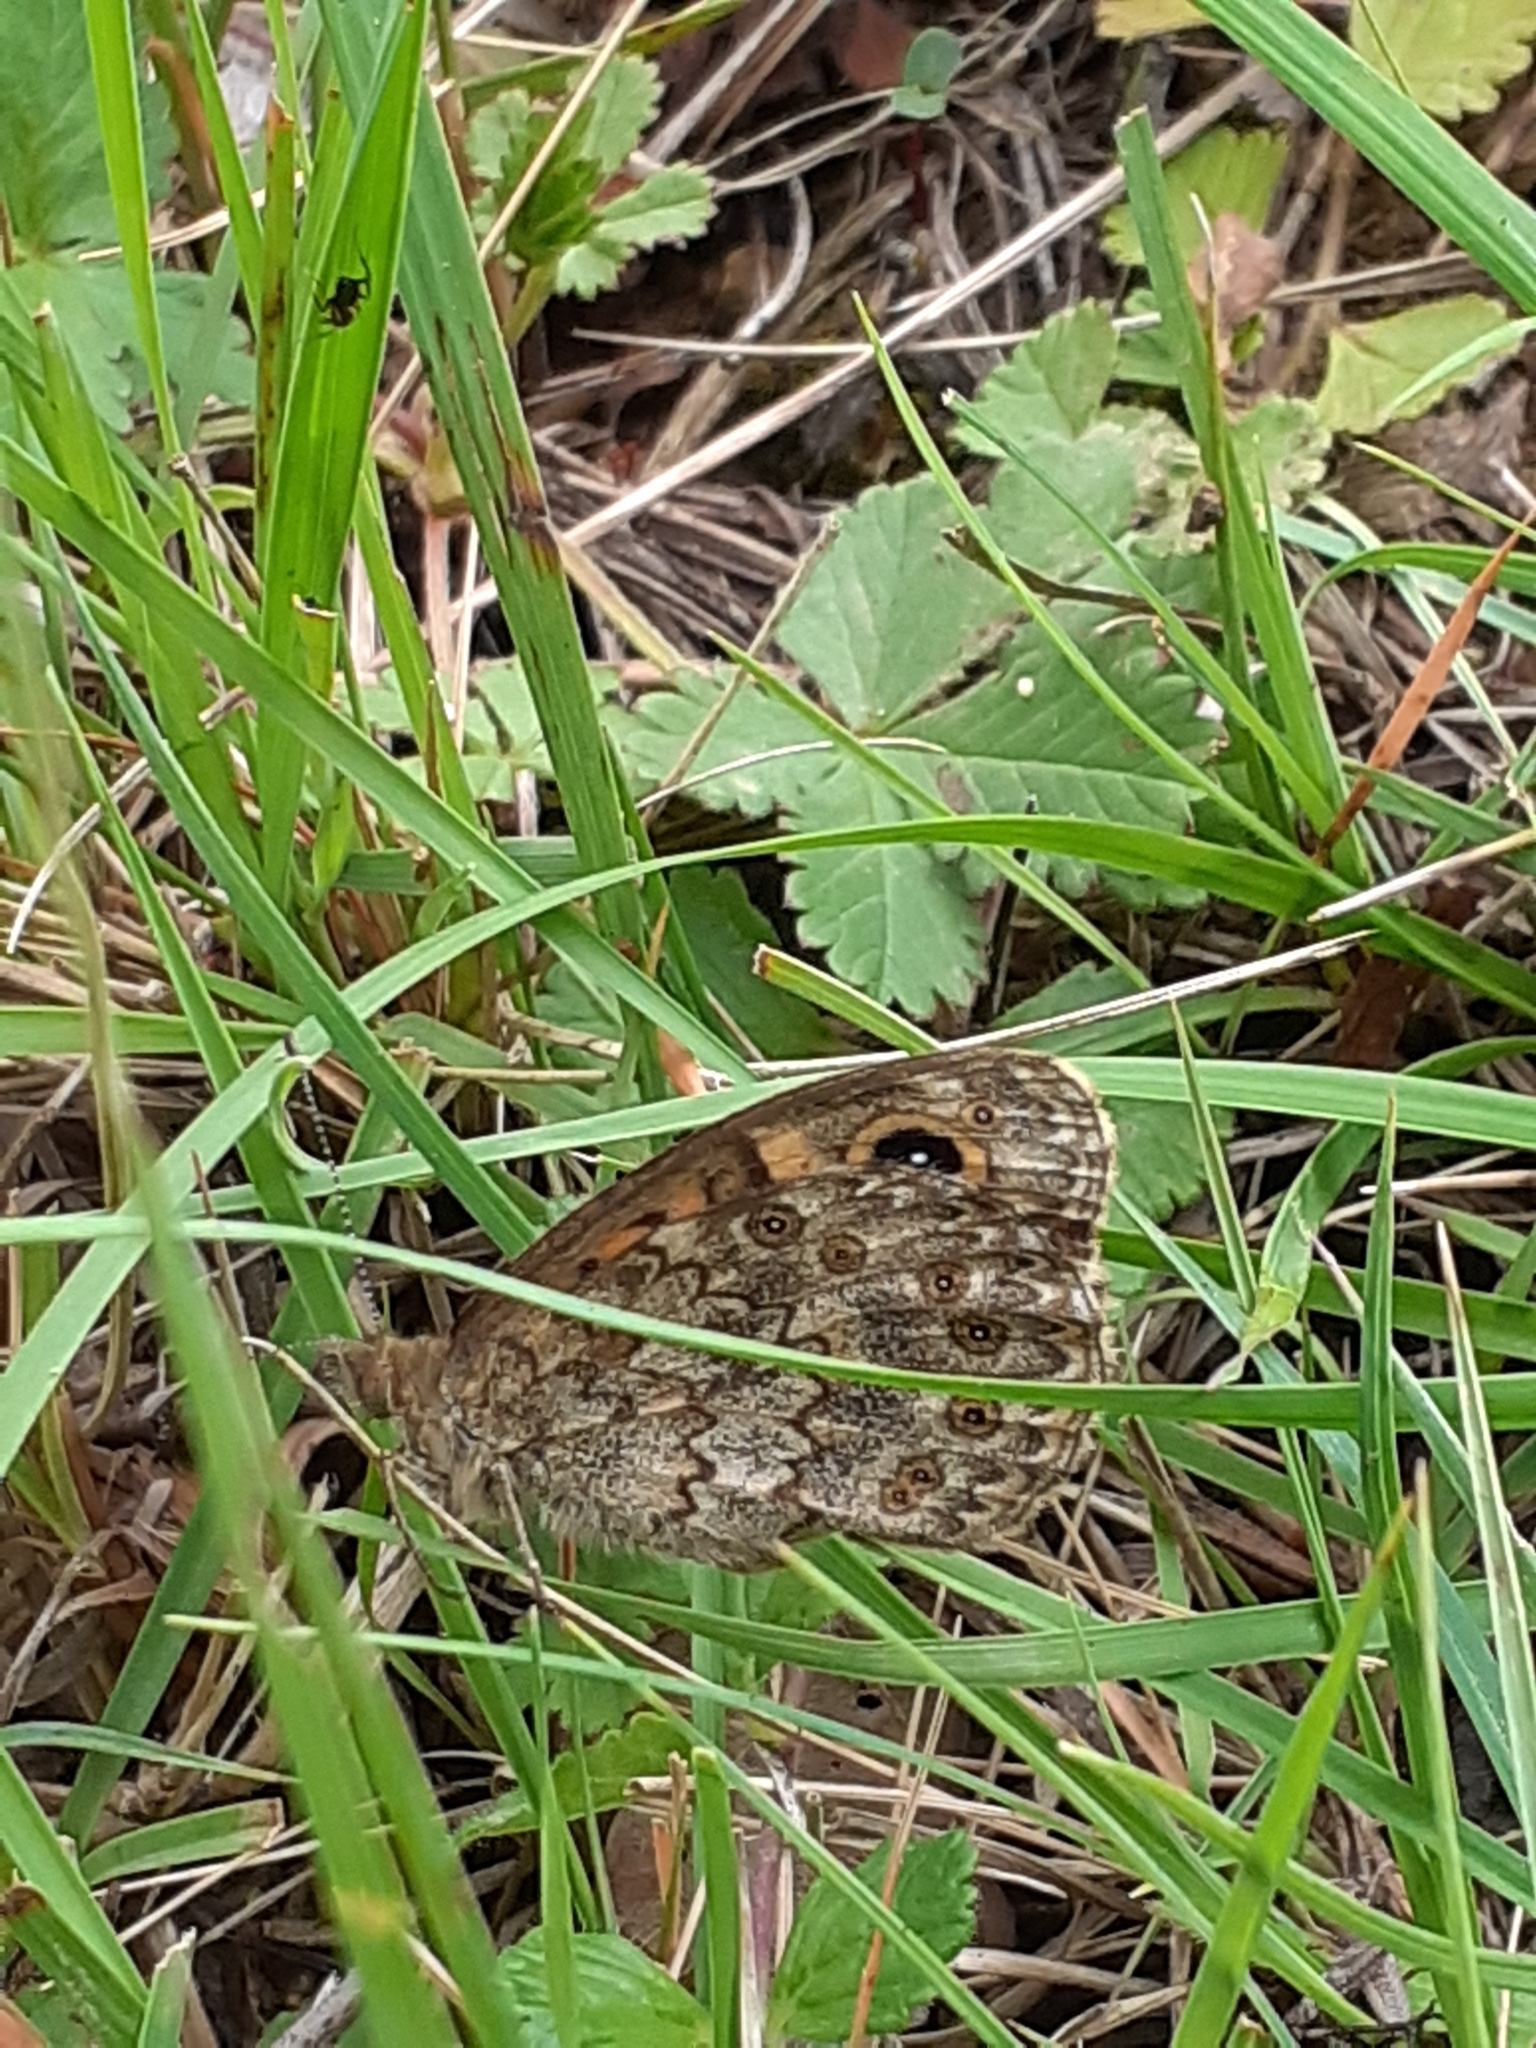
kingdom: Animalia
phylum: Arthropoda
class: Insecta
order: Lepidoptera
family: Nymphalidae
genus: Pararge
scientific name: Pararge Lasiommata megera
